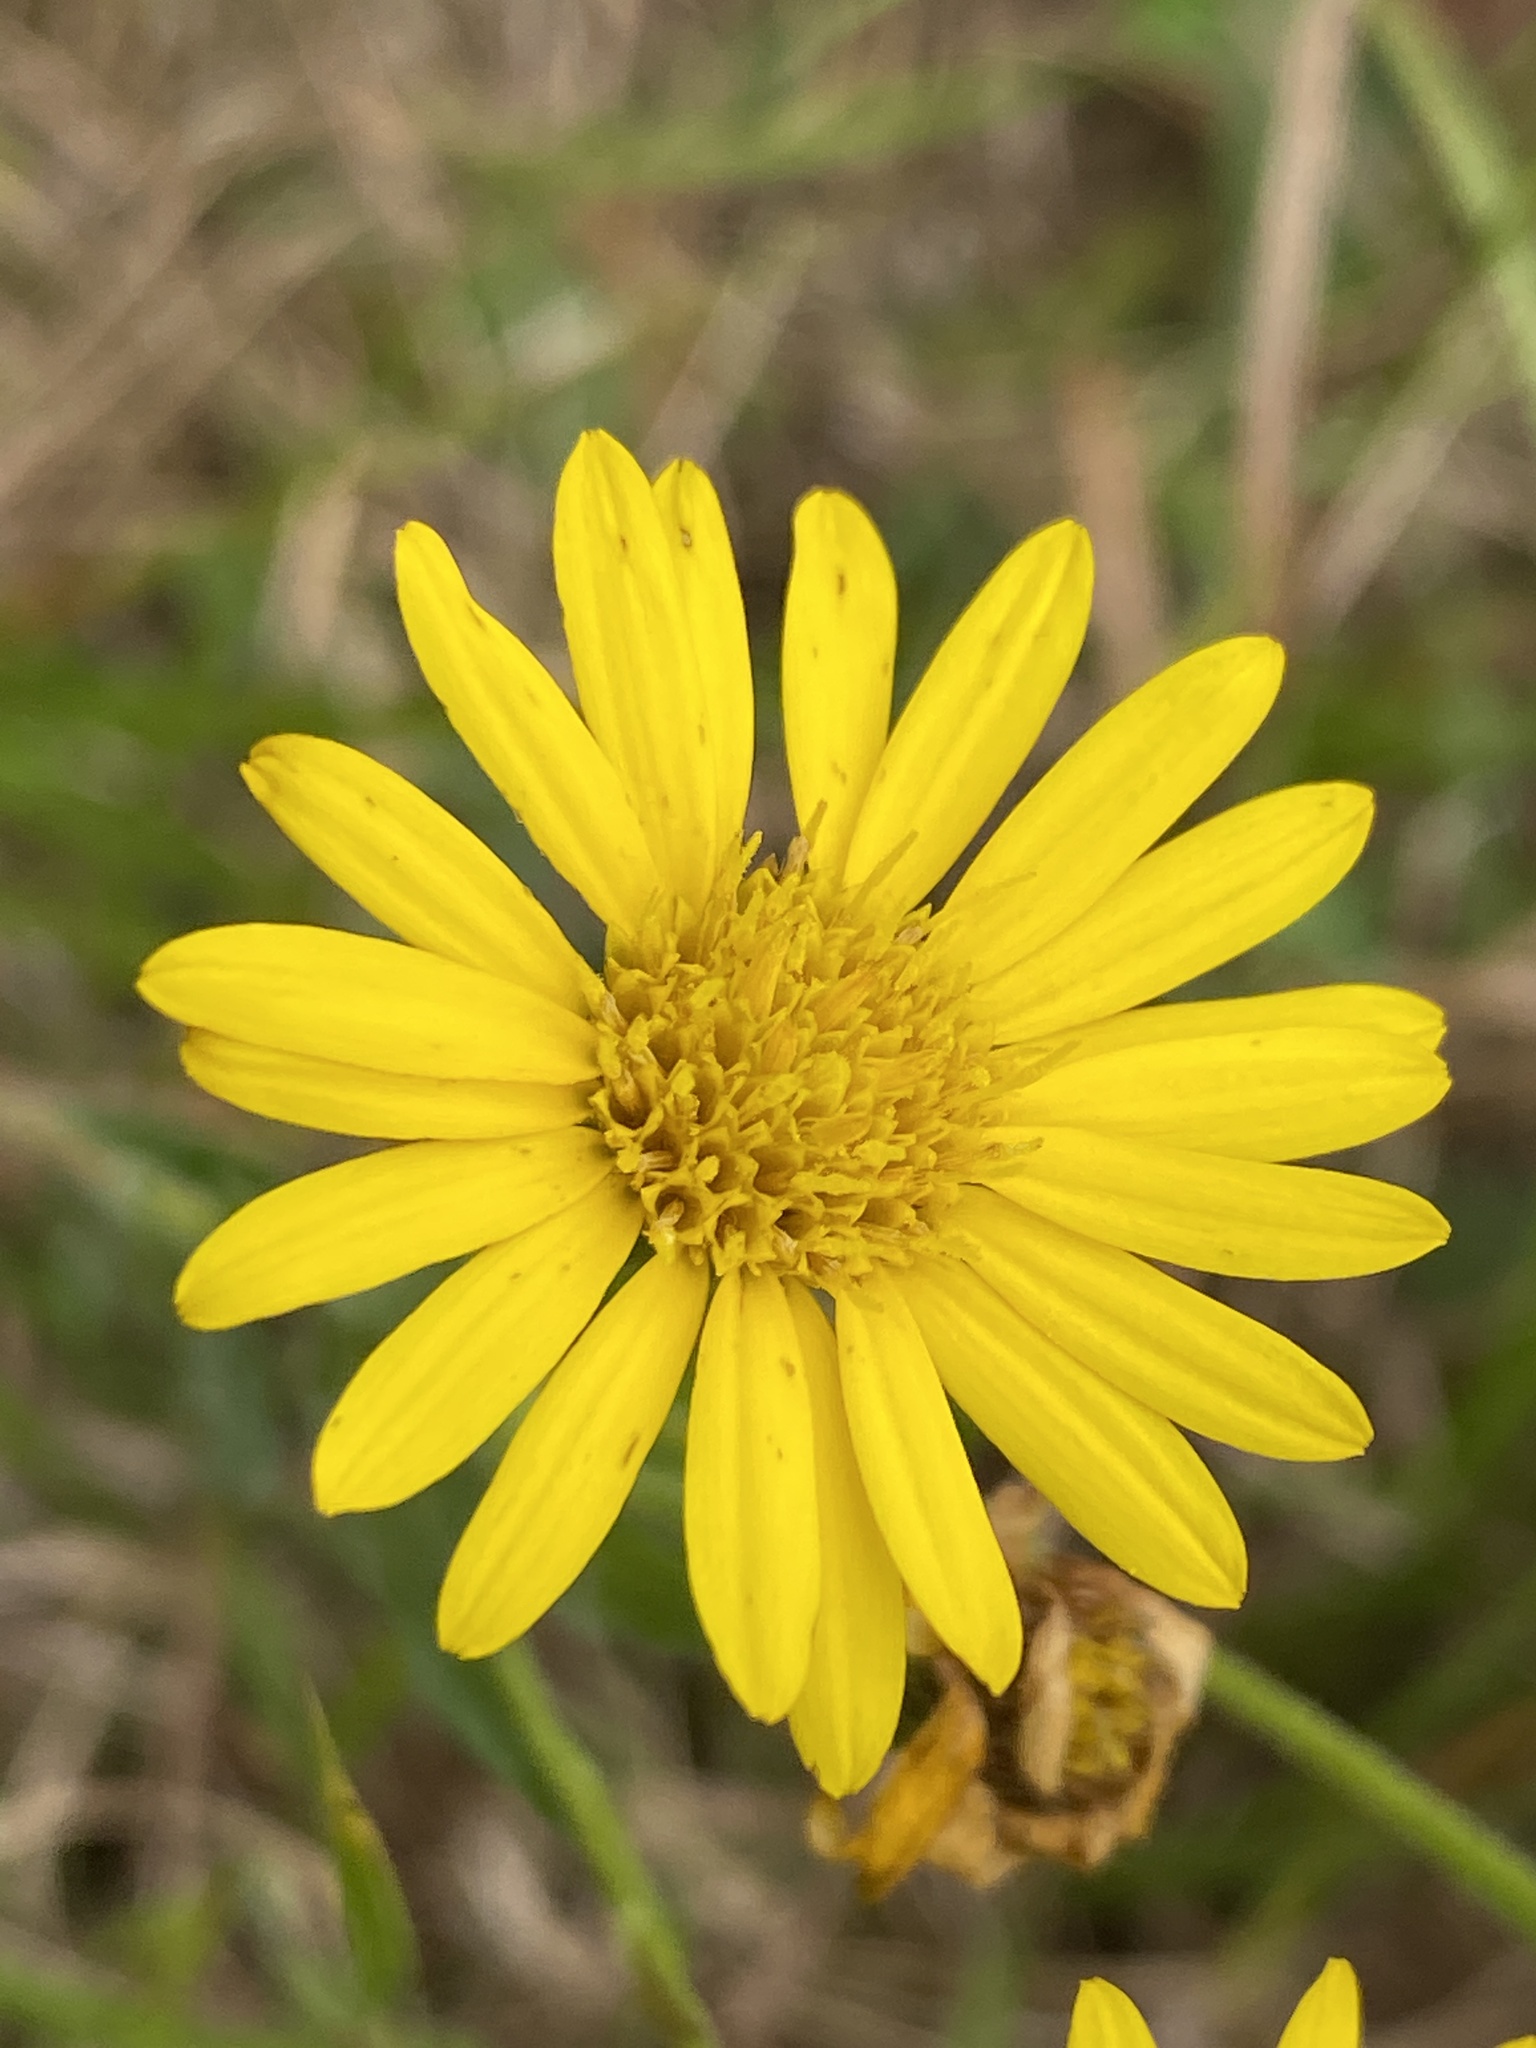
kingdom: Plantae
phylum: Tracheophyta
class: Magnoliopsida
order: Asterales
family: Asteraceae
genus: Chrysopsis
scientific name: Chrysopsis mariana
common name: Maryland golden-aster
